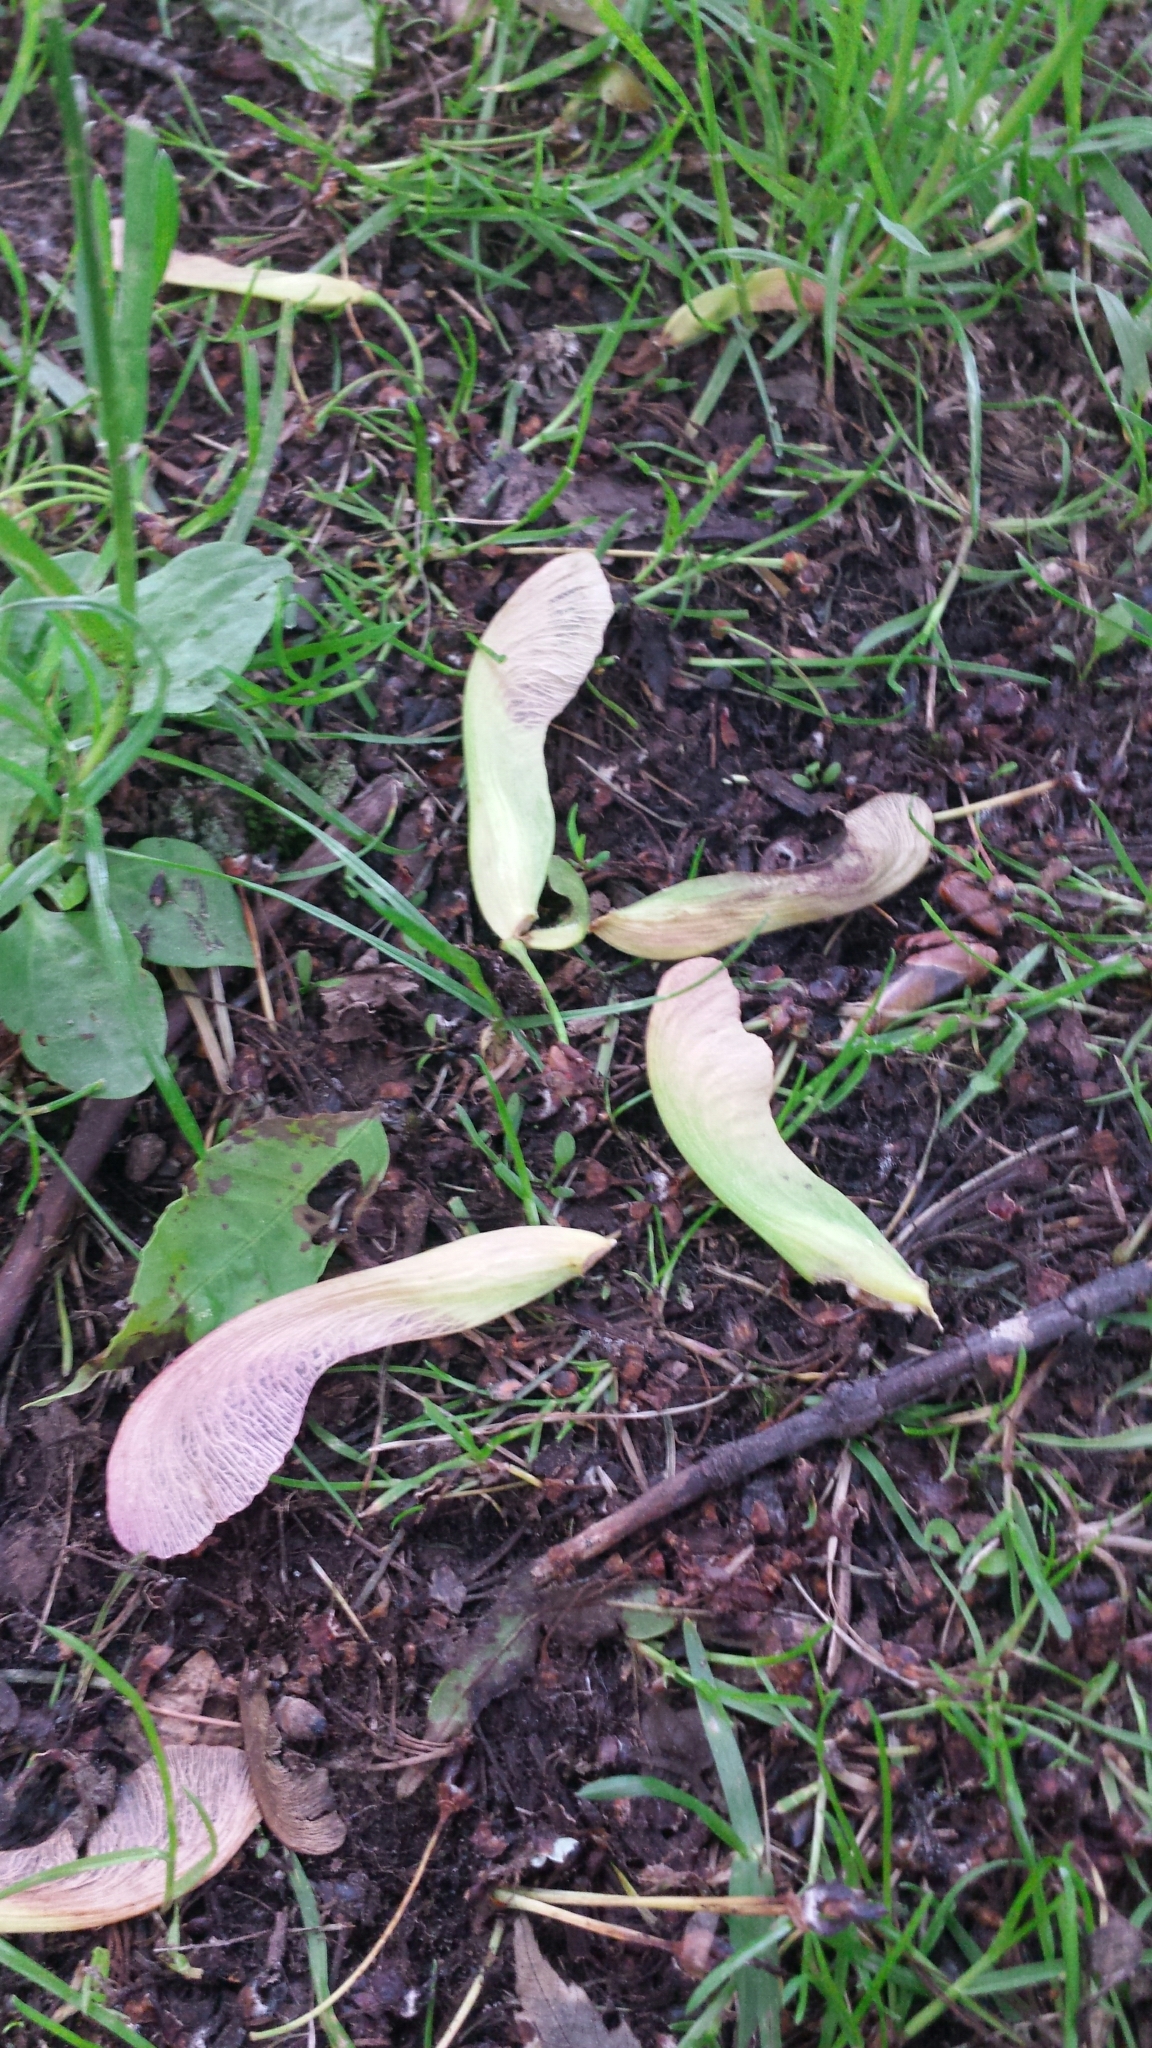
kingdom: Plantae
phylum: Tracheophyta
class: Magnoliopsida
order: Sapindales
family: Sapindaceae
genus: Acer
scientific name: Acer saccharinum
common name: Silver maple
